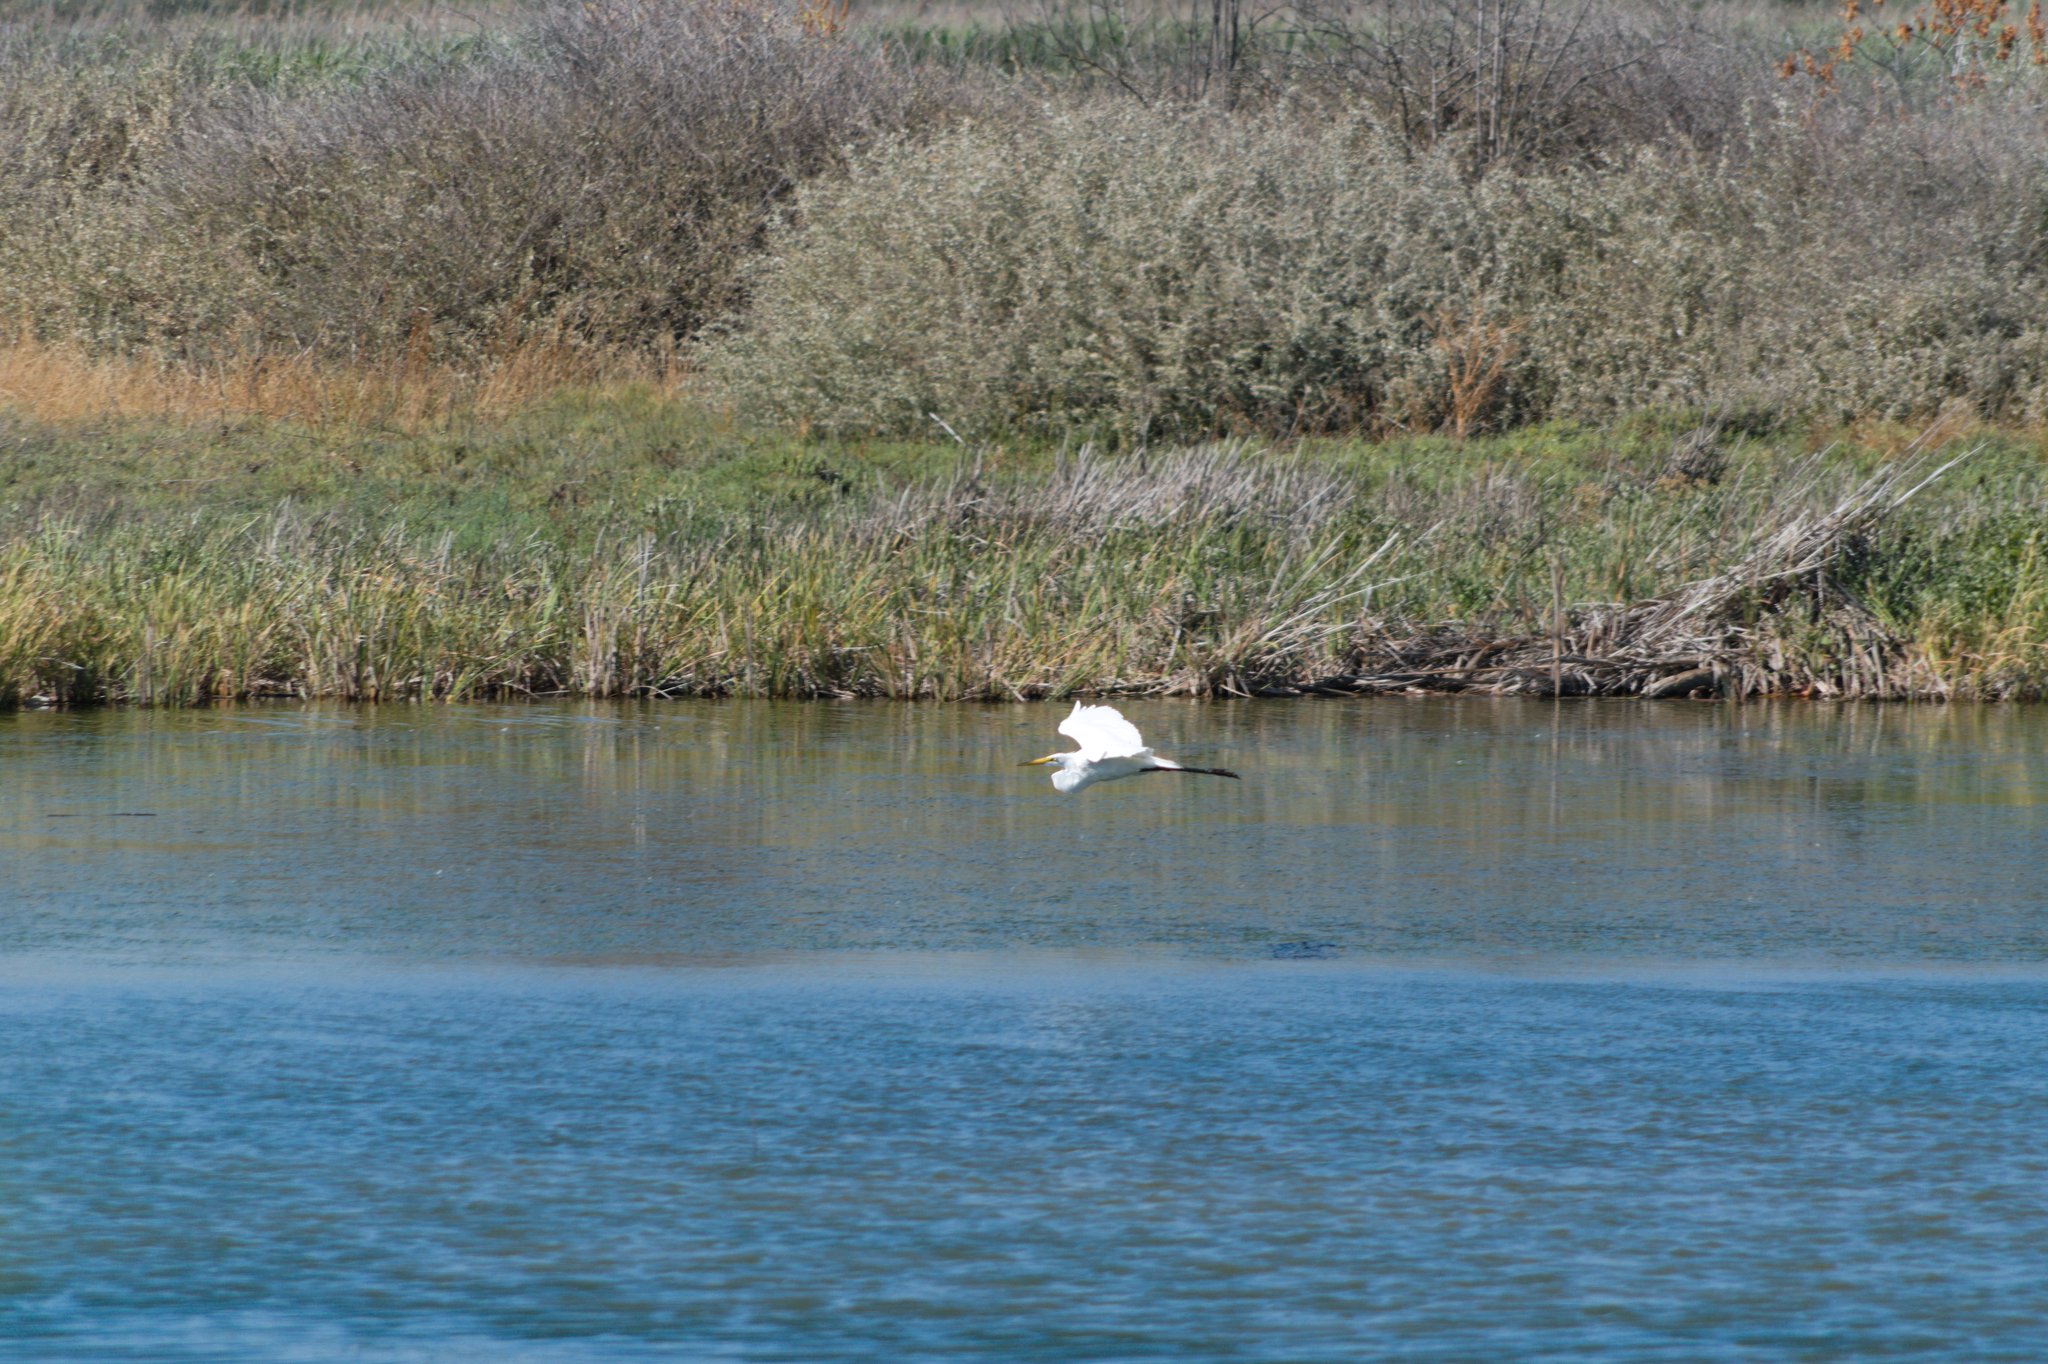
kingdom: Animalia
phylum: Chordata
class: Aves
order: Pelecaniformes
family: Ardeidae
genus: Ardea
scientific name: Ardea alba
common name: Great egret
